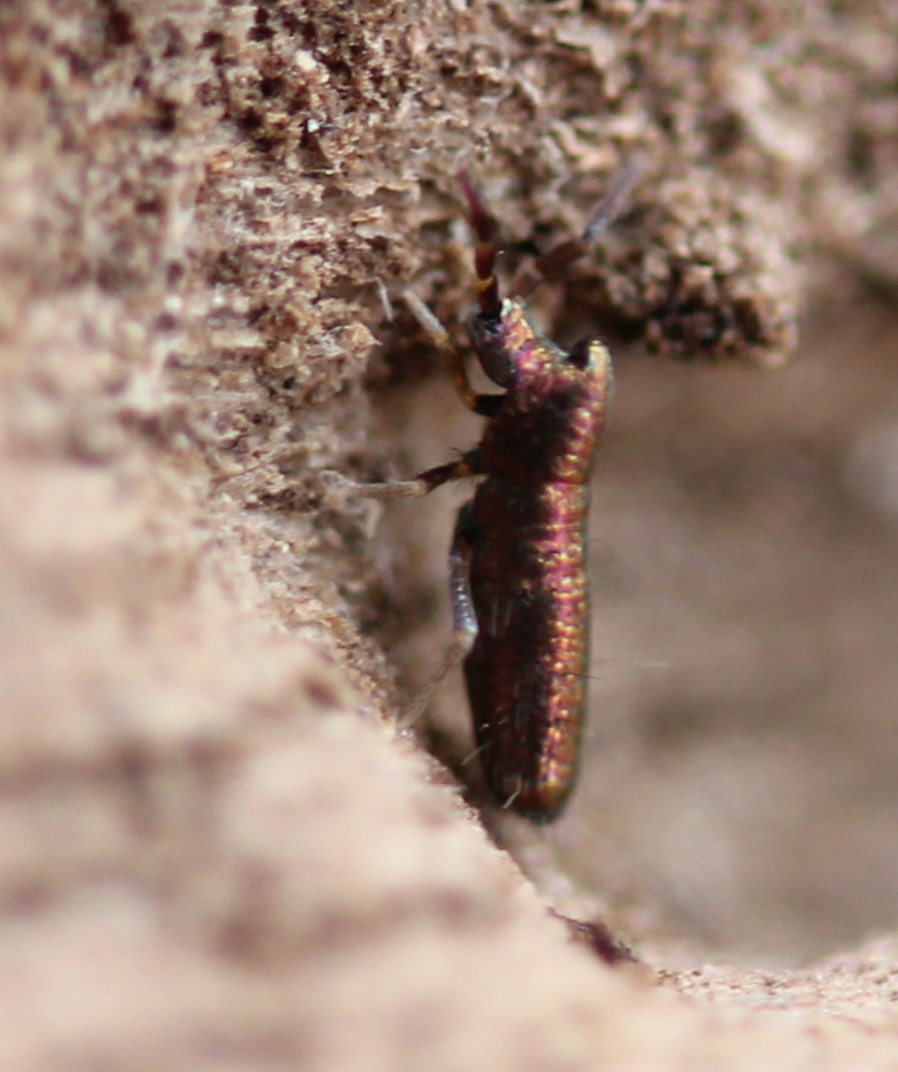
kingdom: Animalia
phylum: Arthropoda
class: Collembola
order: Entomobryomorpha
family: Entomobryidae
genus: Lepidocyrtus
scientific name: Lepidocyrtus paradoxus
